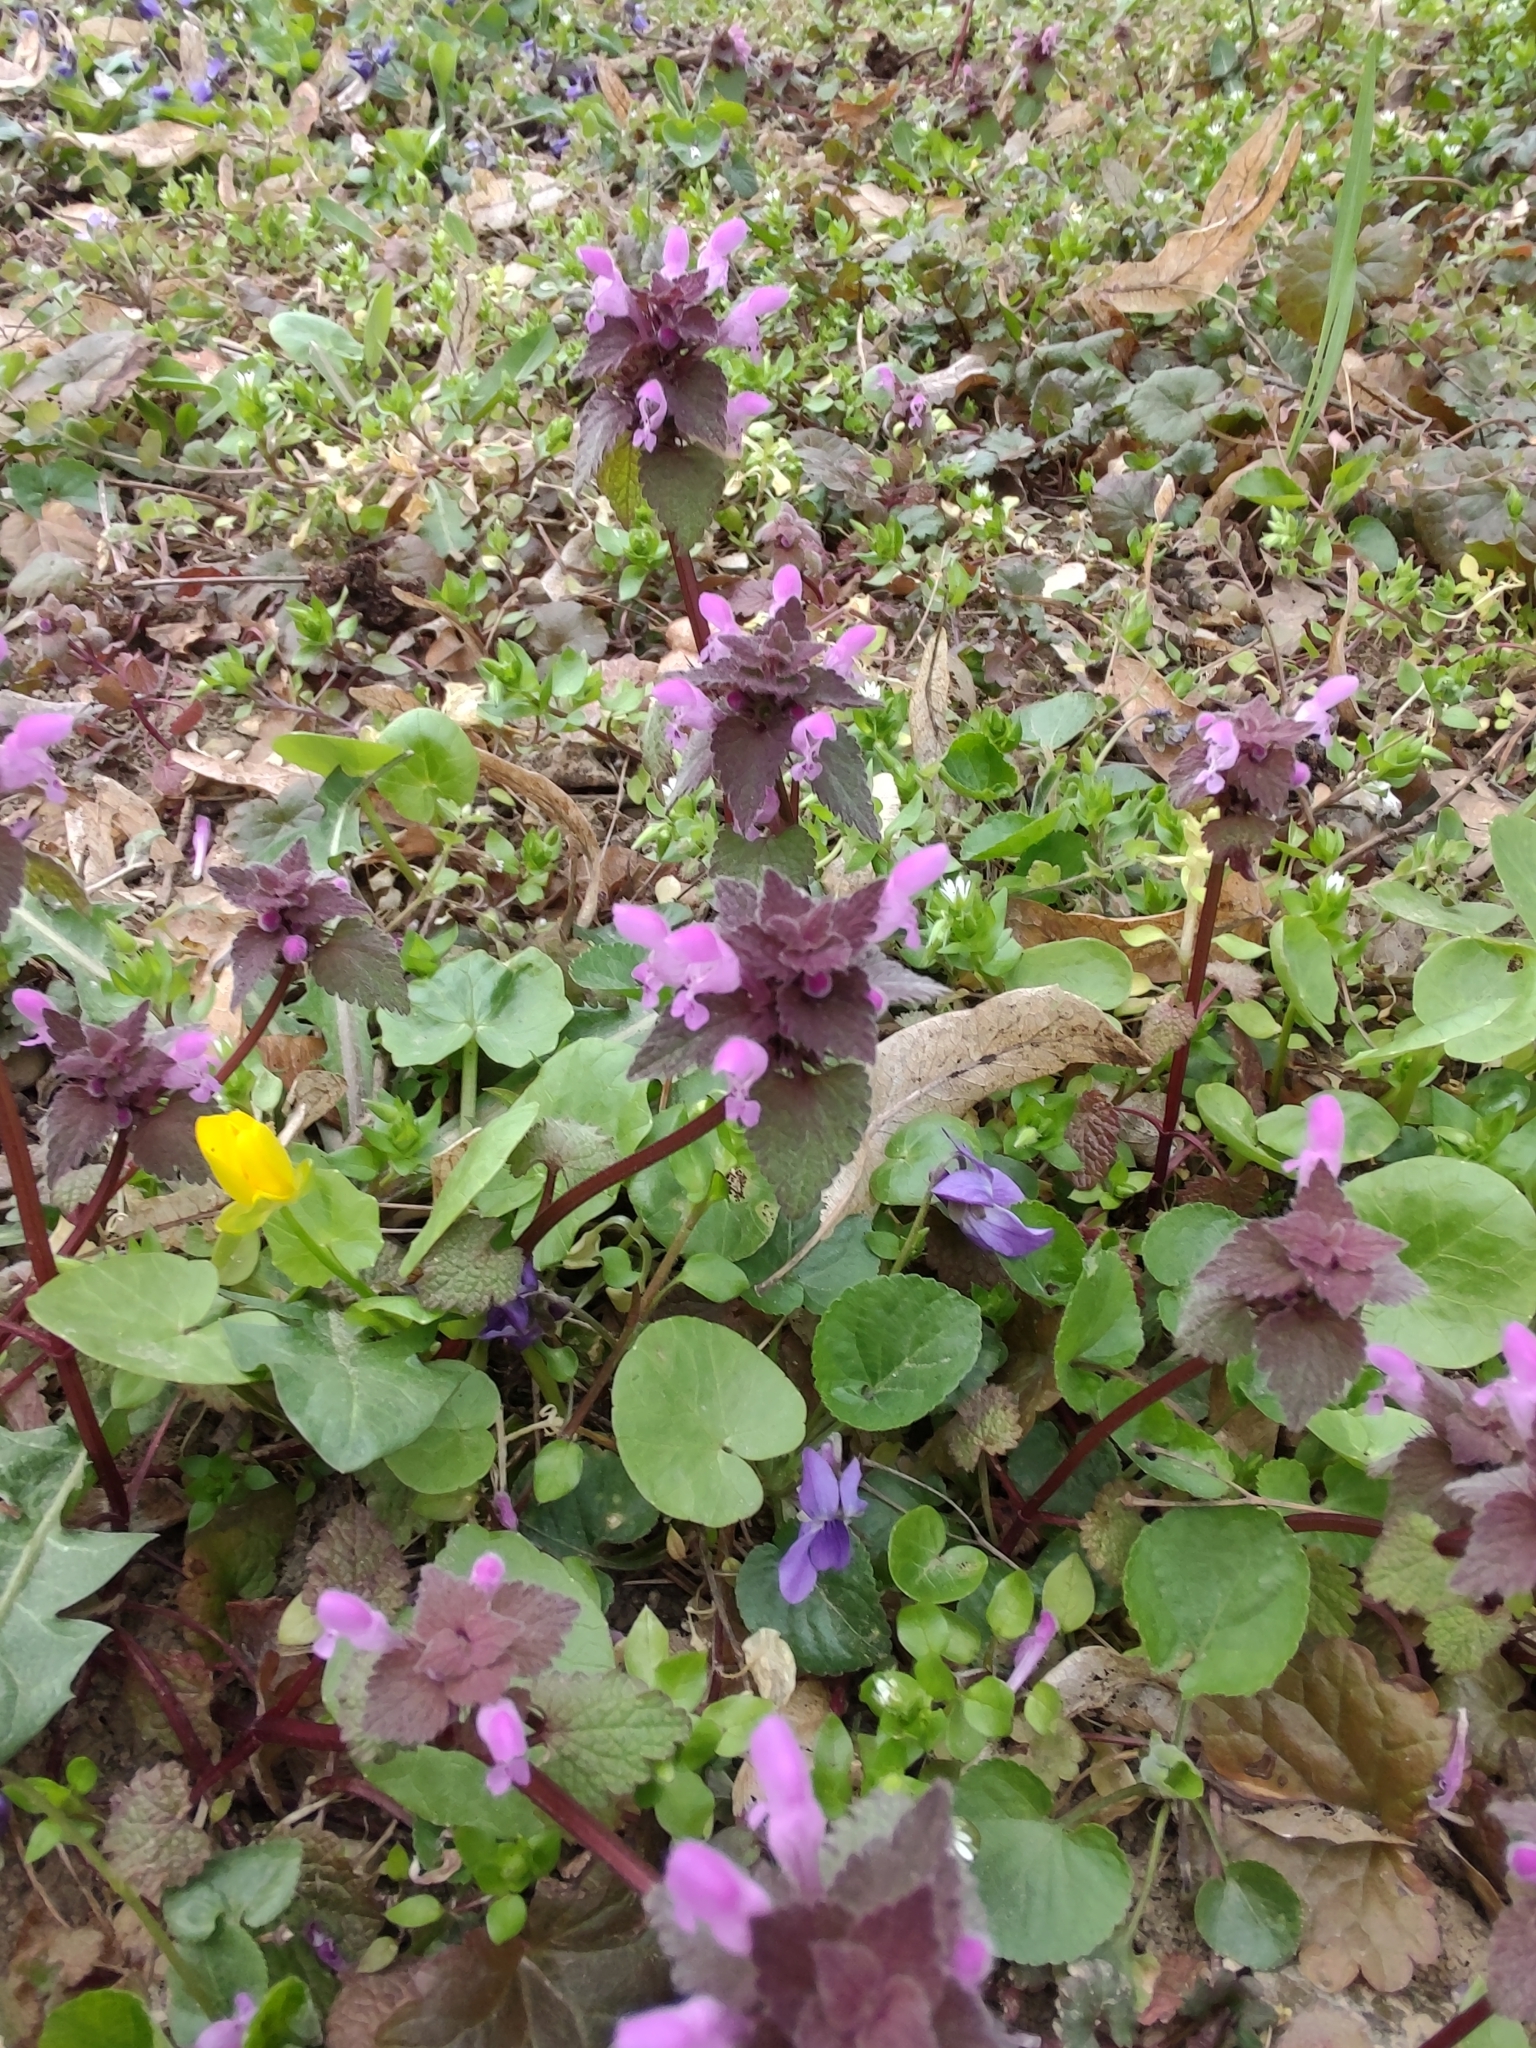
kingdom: Plantae
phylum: Tracheophyta
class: Magnoliopsida
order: Lamiales
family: Lamiaceae
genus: Lamium
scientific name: Lamium purpureum
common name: Red dead-nettle
